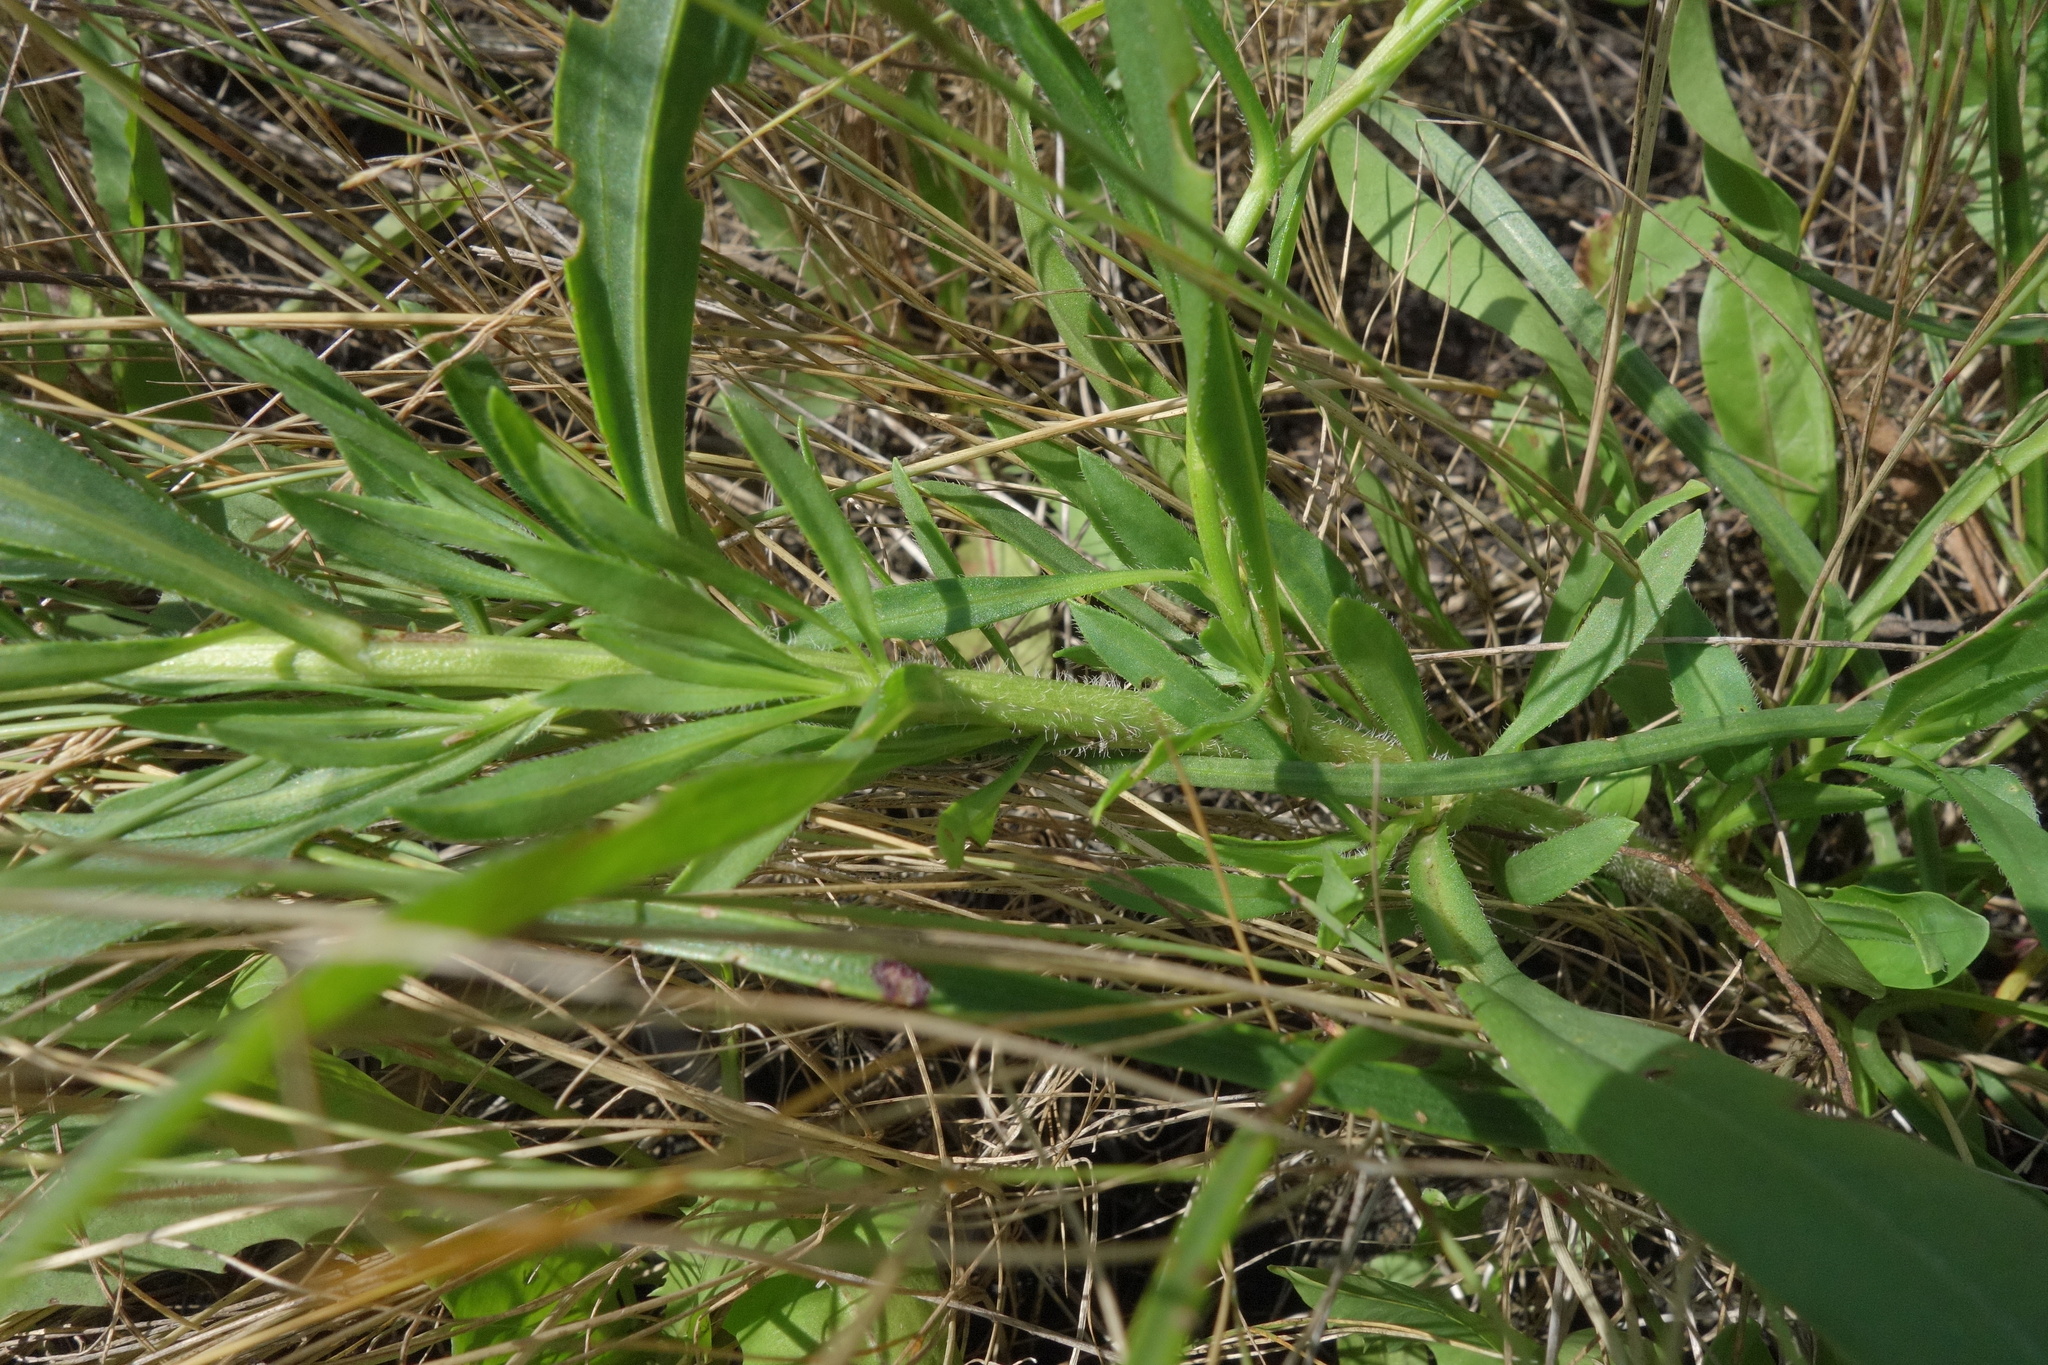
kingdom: Plantae
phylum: Tracheophyta
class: Magnoliopsida
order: Asterales
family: Asteraceae
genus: Tripolium
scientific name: Tripolium pannonicum
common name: Sea aster
